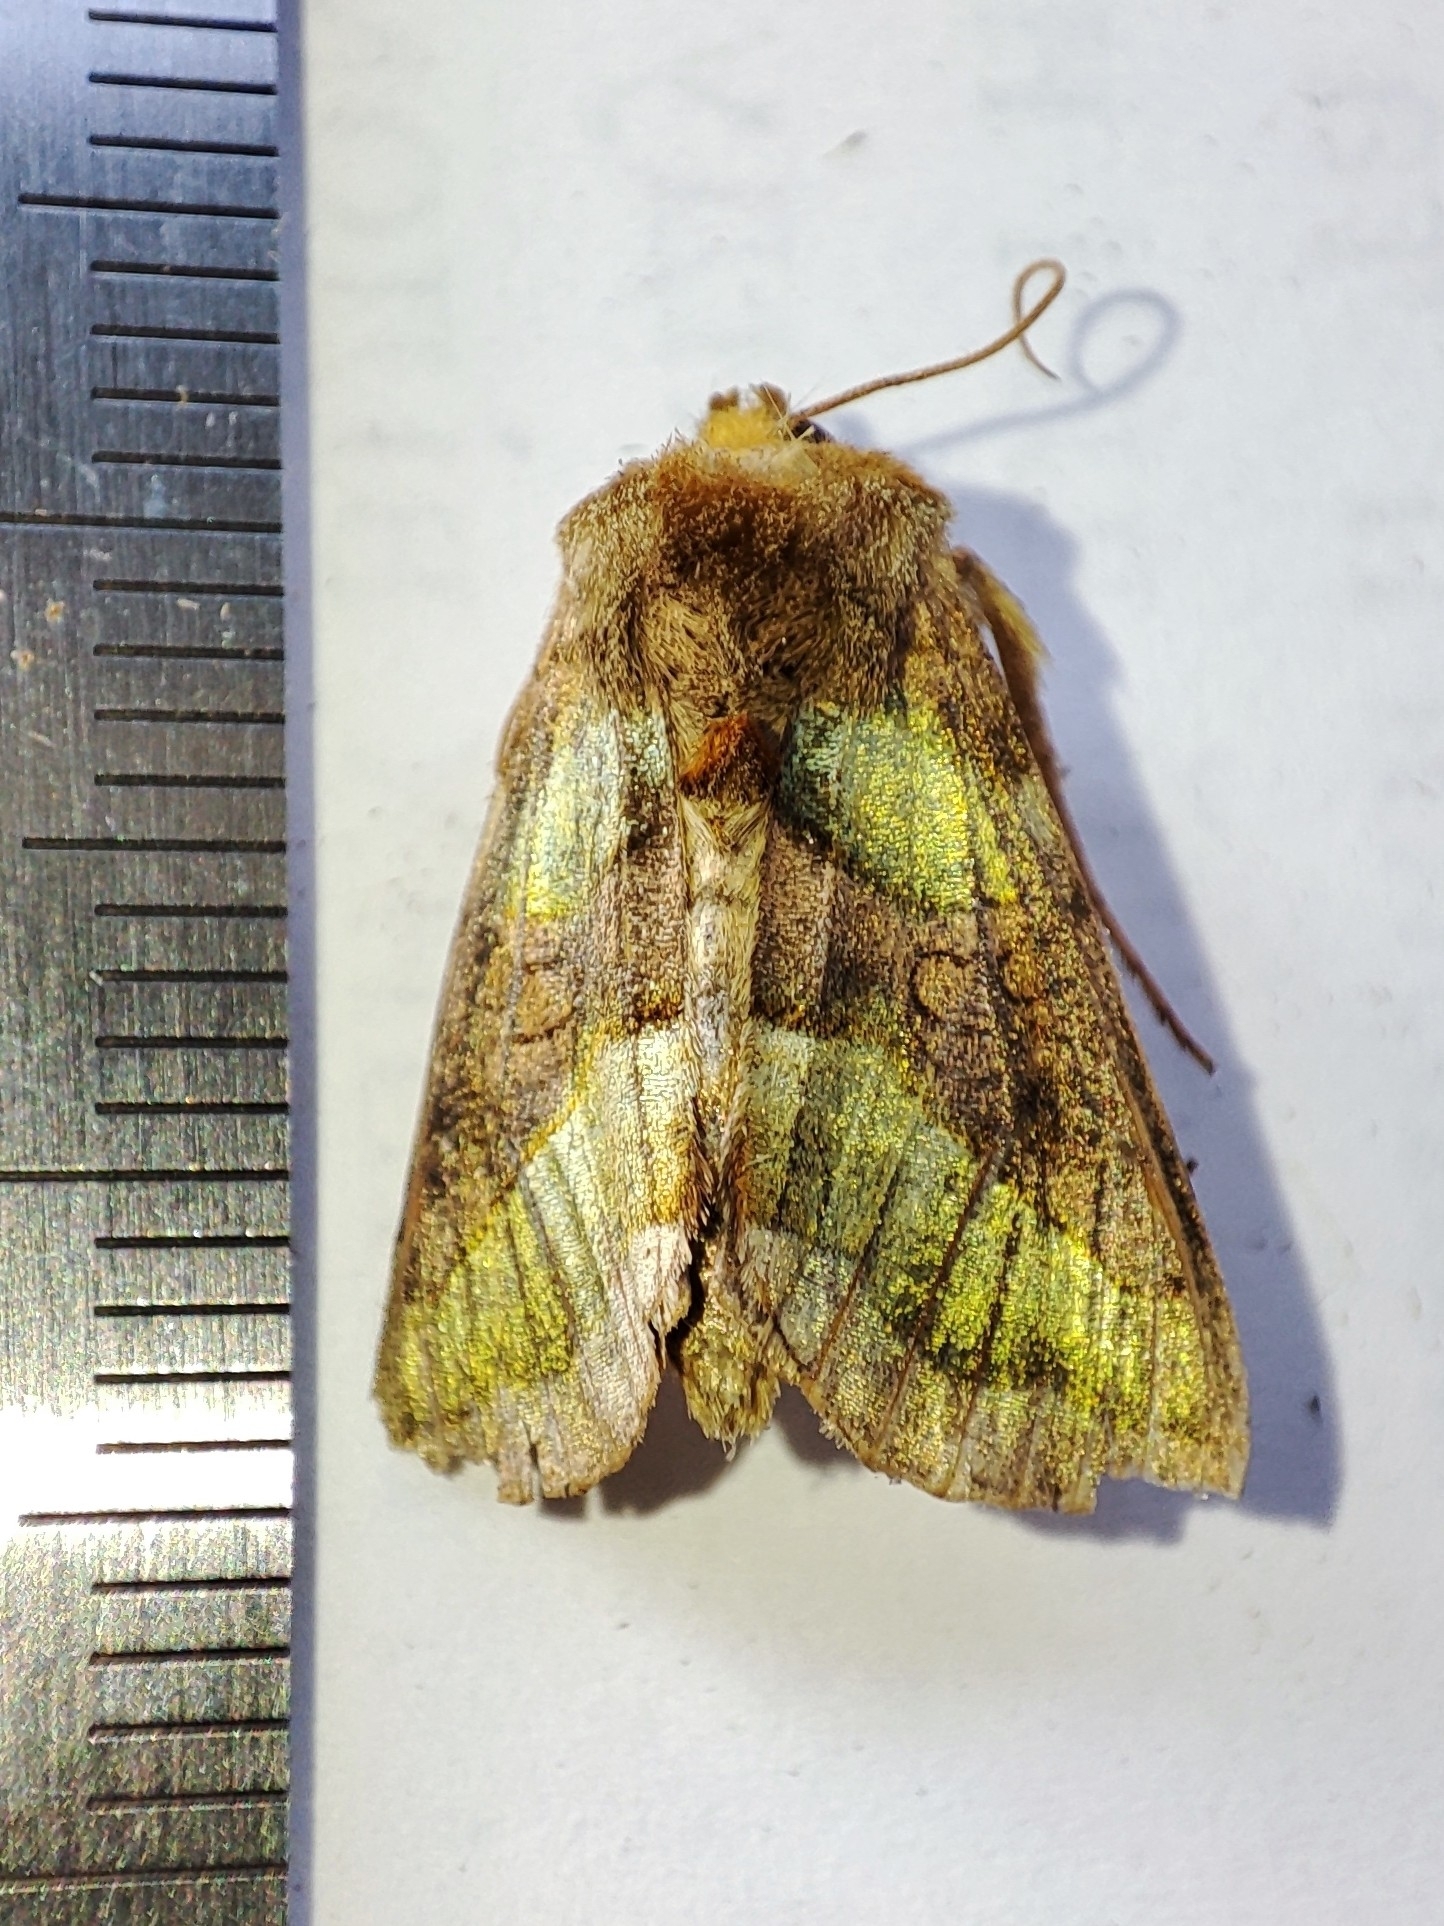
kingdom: Animalia
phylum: Arthropoda
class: Insecta
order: Lepidoptera
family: Noctuidae
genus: Diachrysia
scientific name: Diachrysia
